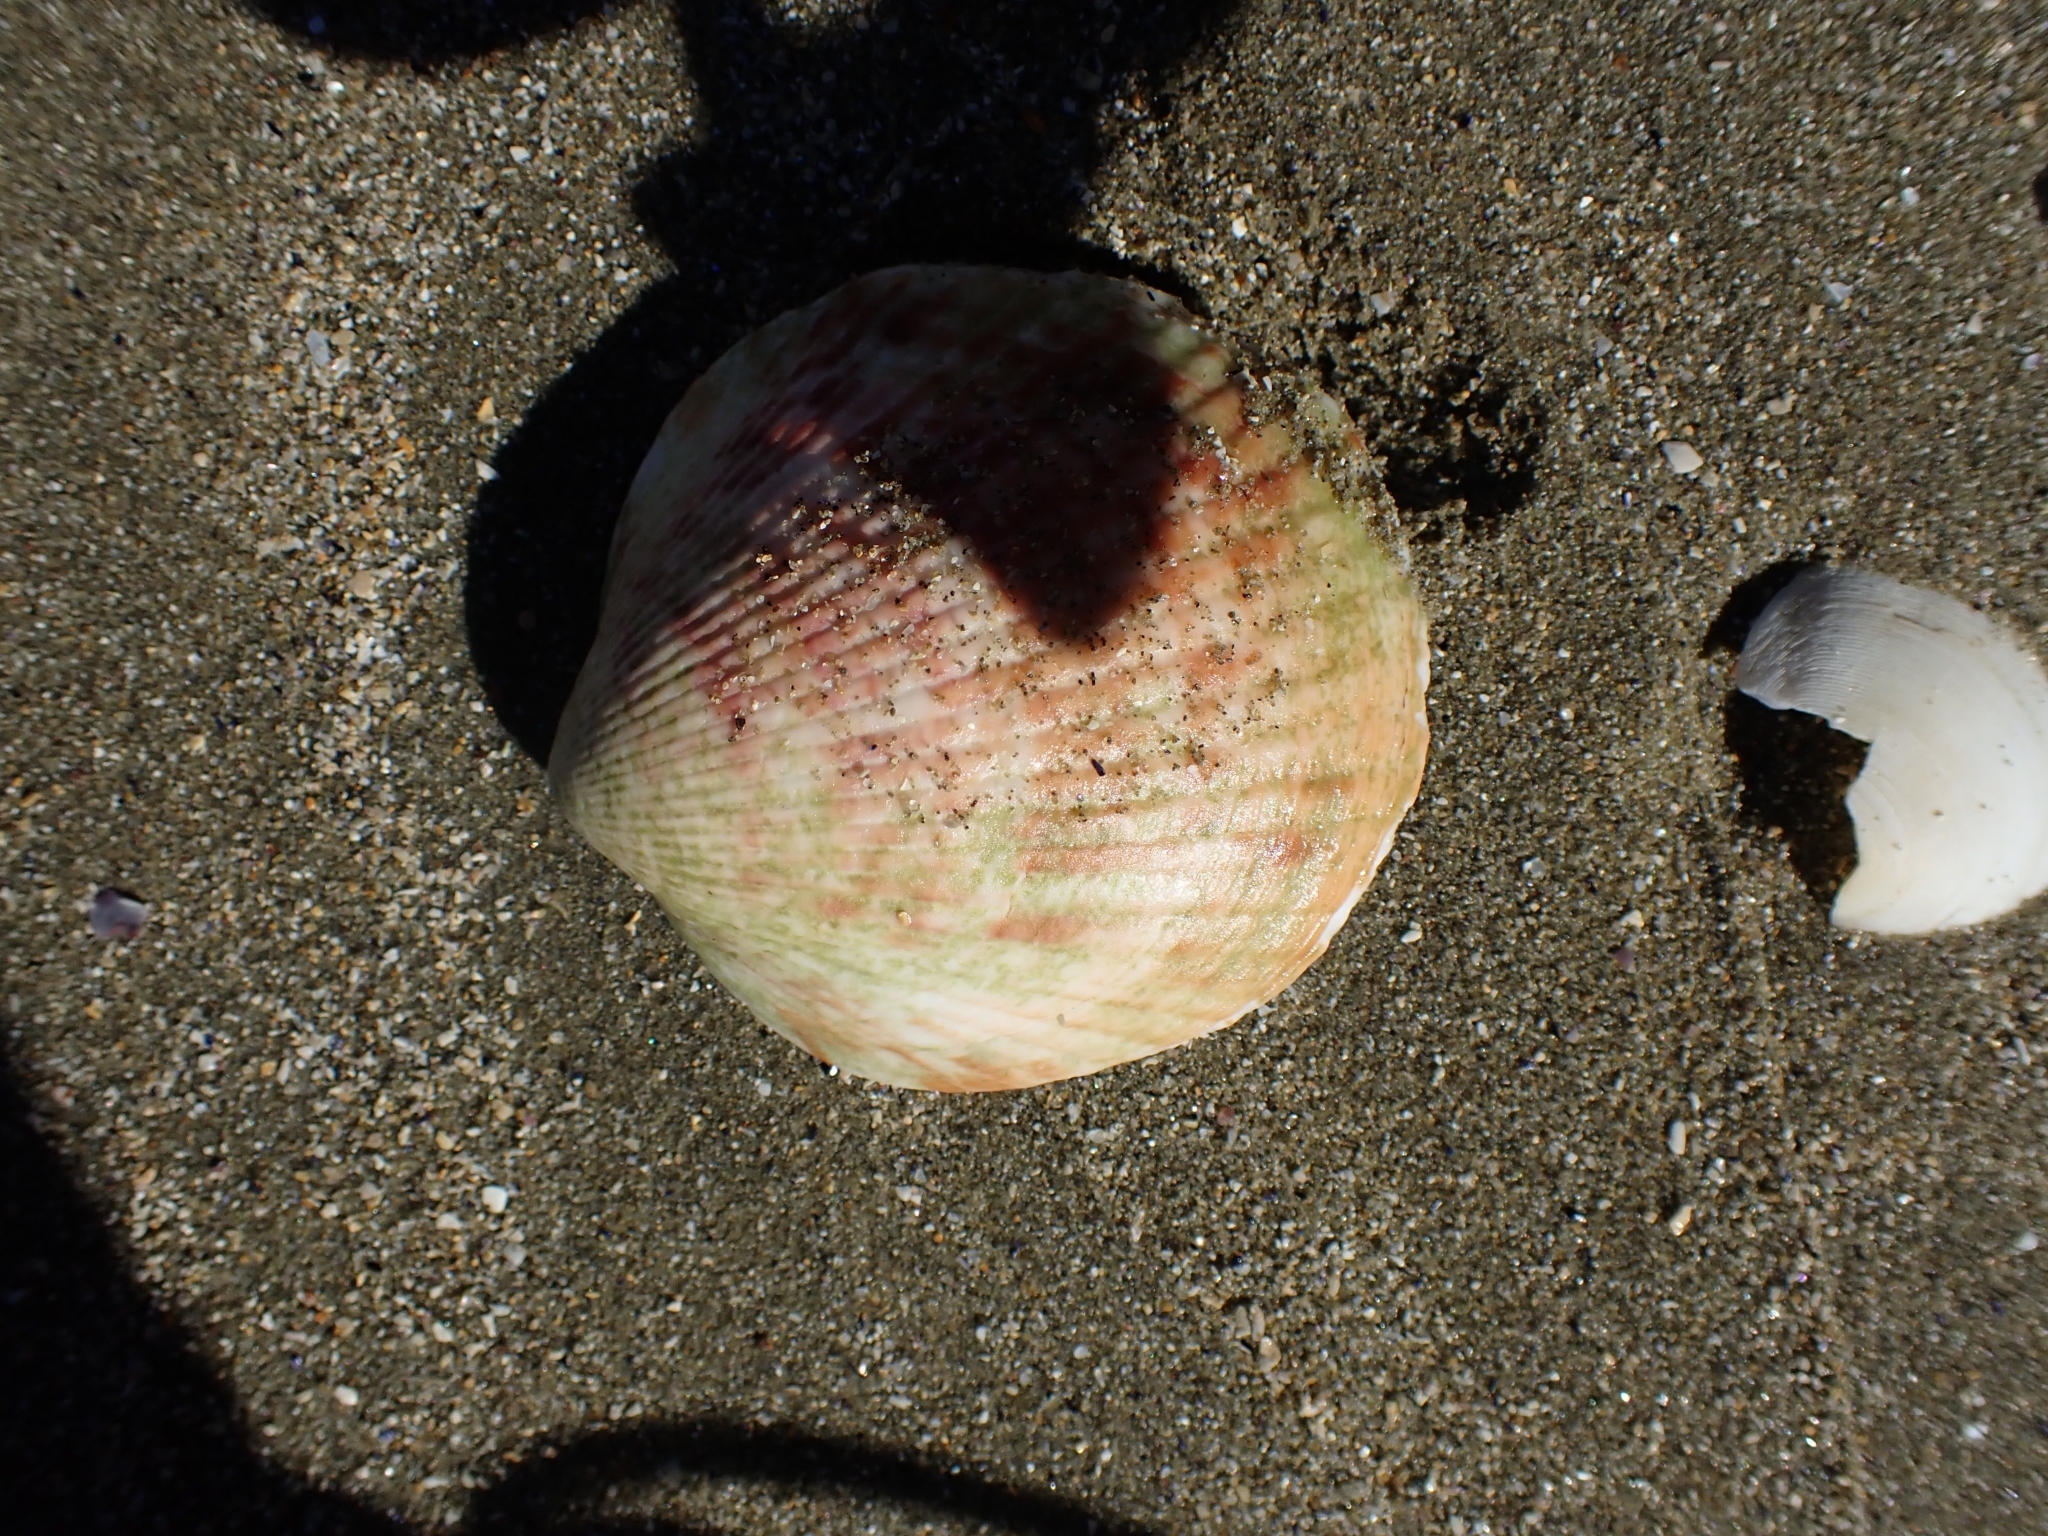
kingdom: Animalia
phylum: Mollusca
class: Bivalvia
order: Arcida
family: Glycymerididae
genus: Tucetona
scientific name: Tucetona laticostata
